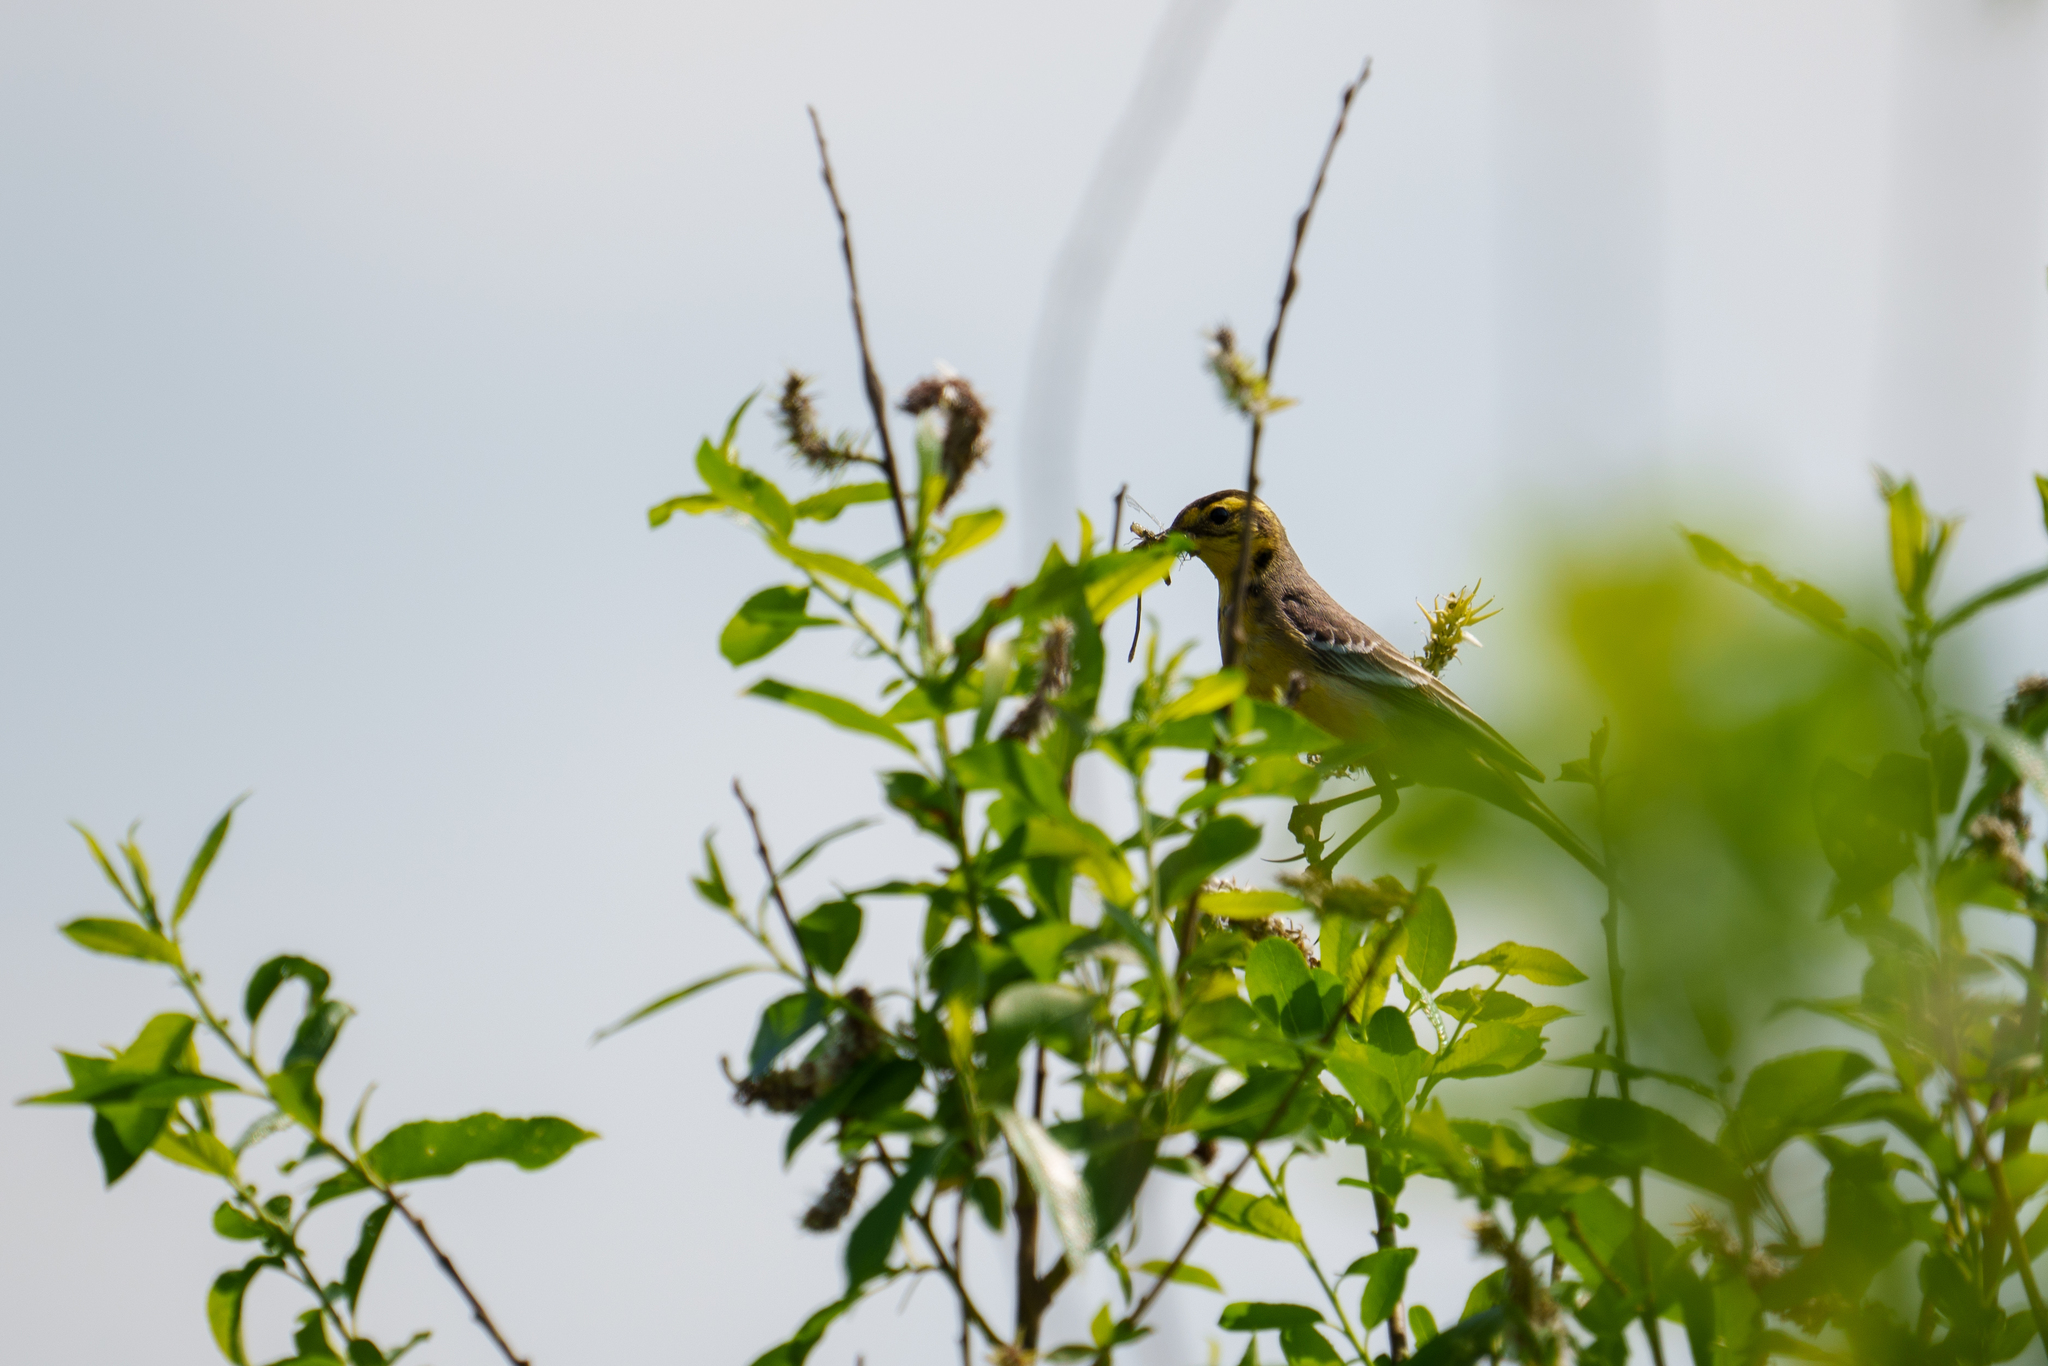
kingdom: Animalia
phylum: Chordata
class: Aves
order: Passeriformes
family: Motacillidae
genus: Motacilla
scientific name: Motacilla citreola
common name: Citrine wagtail
